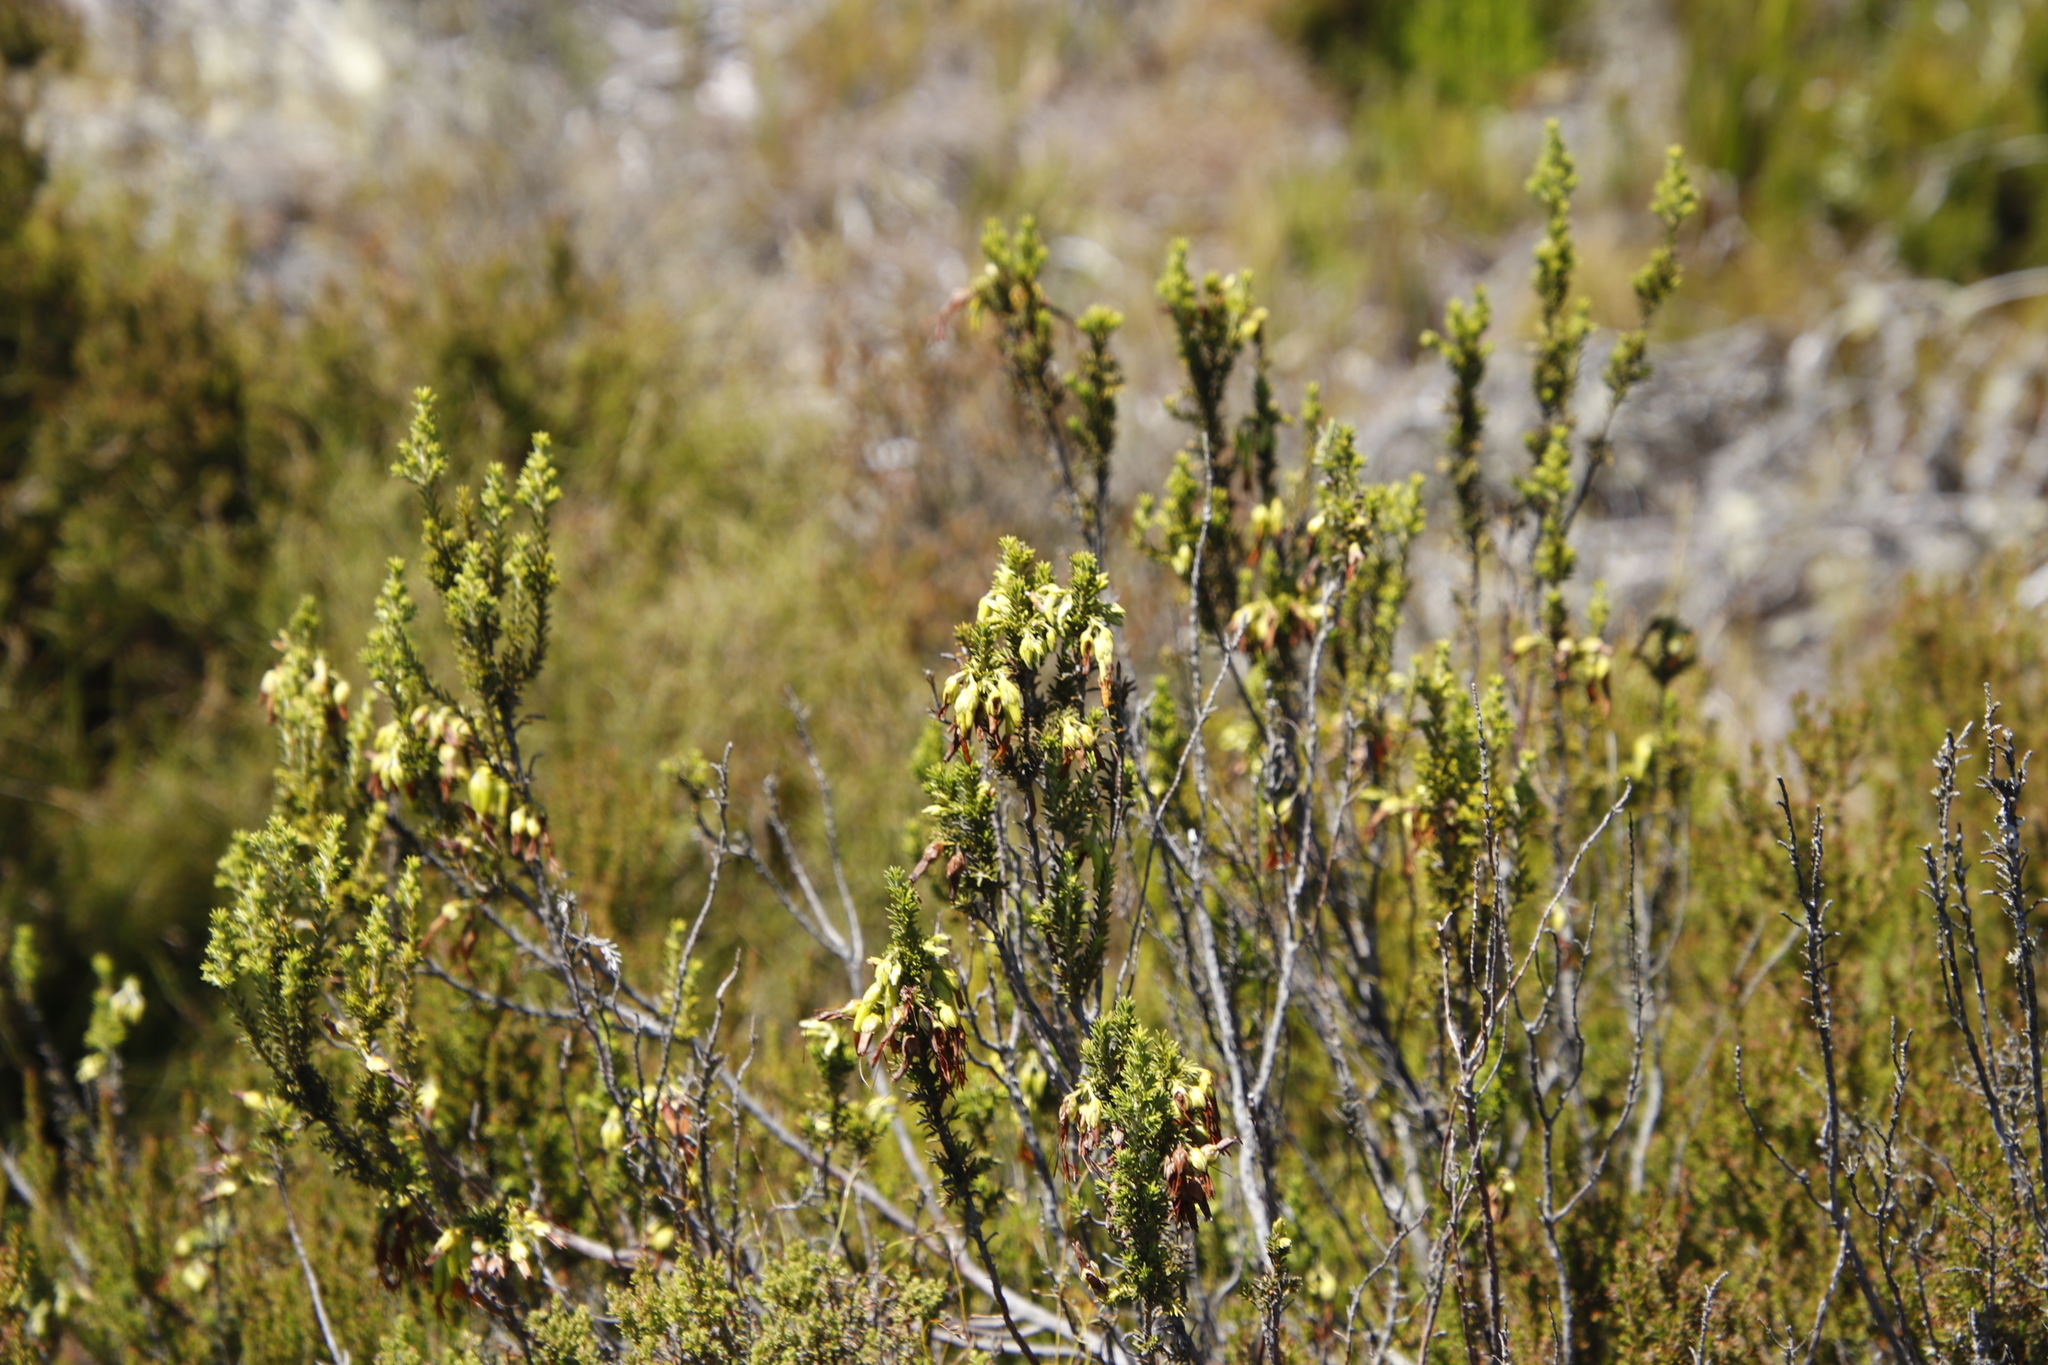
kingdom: Plantae
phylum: Tracheophyta
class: Magnoliopsida
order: Ericales
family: Ericaceae
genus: Erica
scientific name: Erica coccinea
